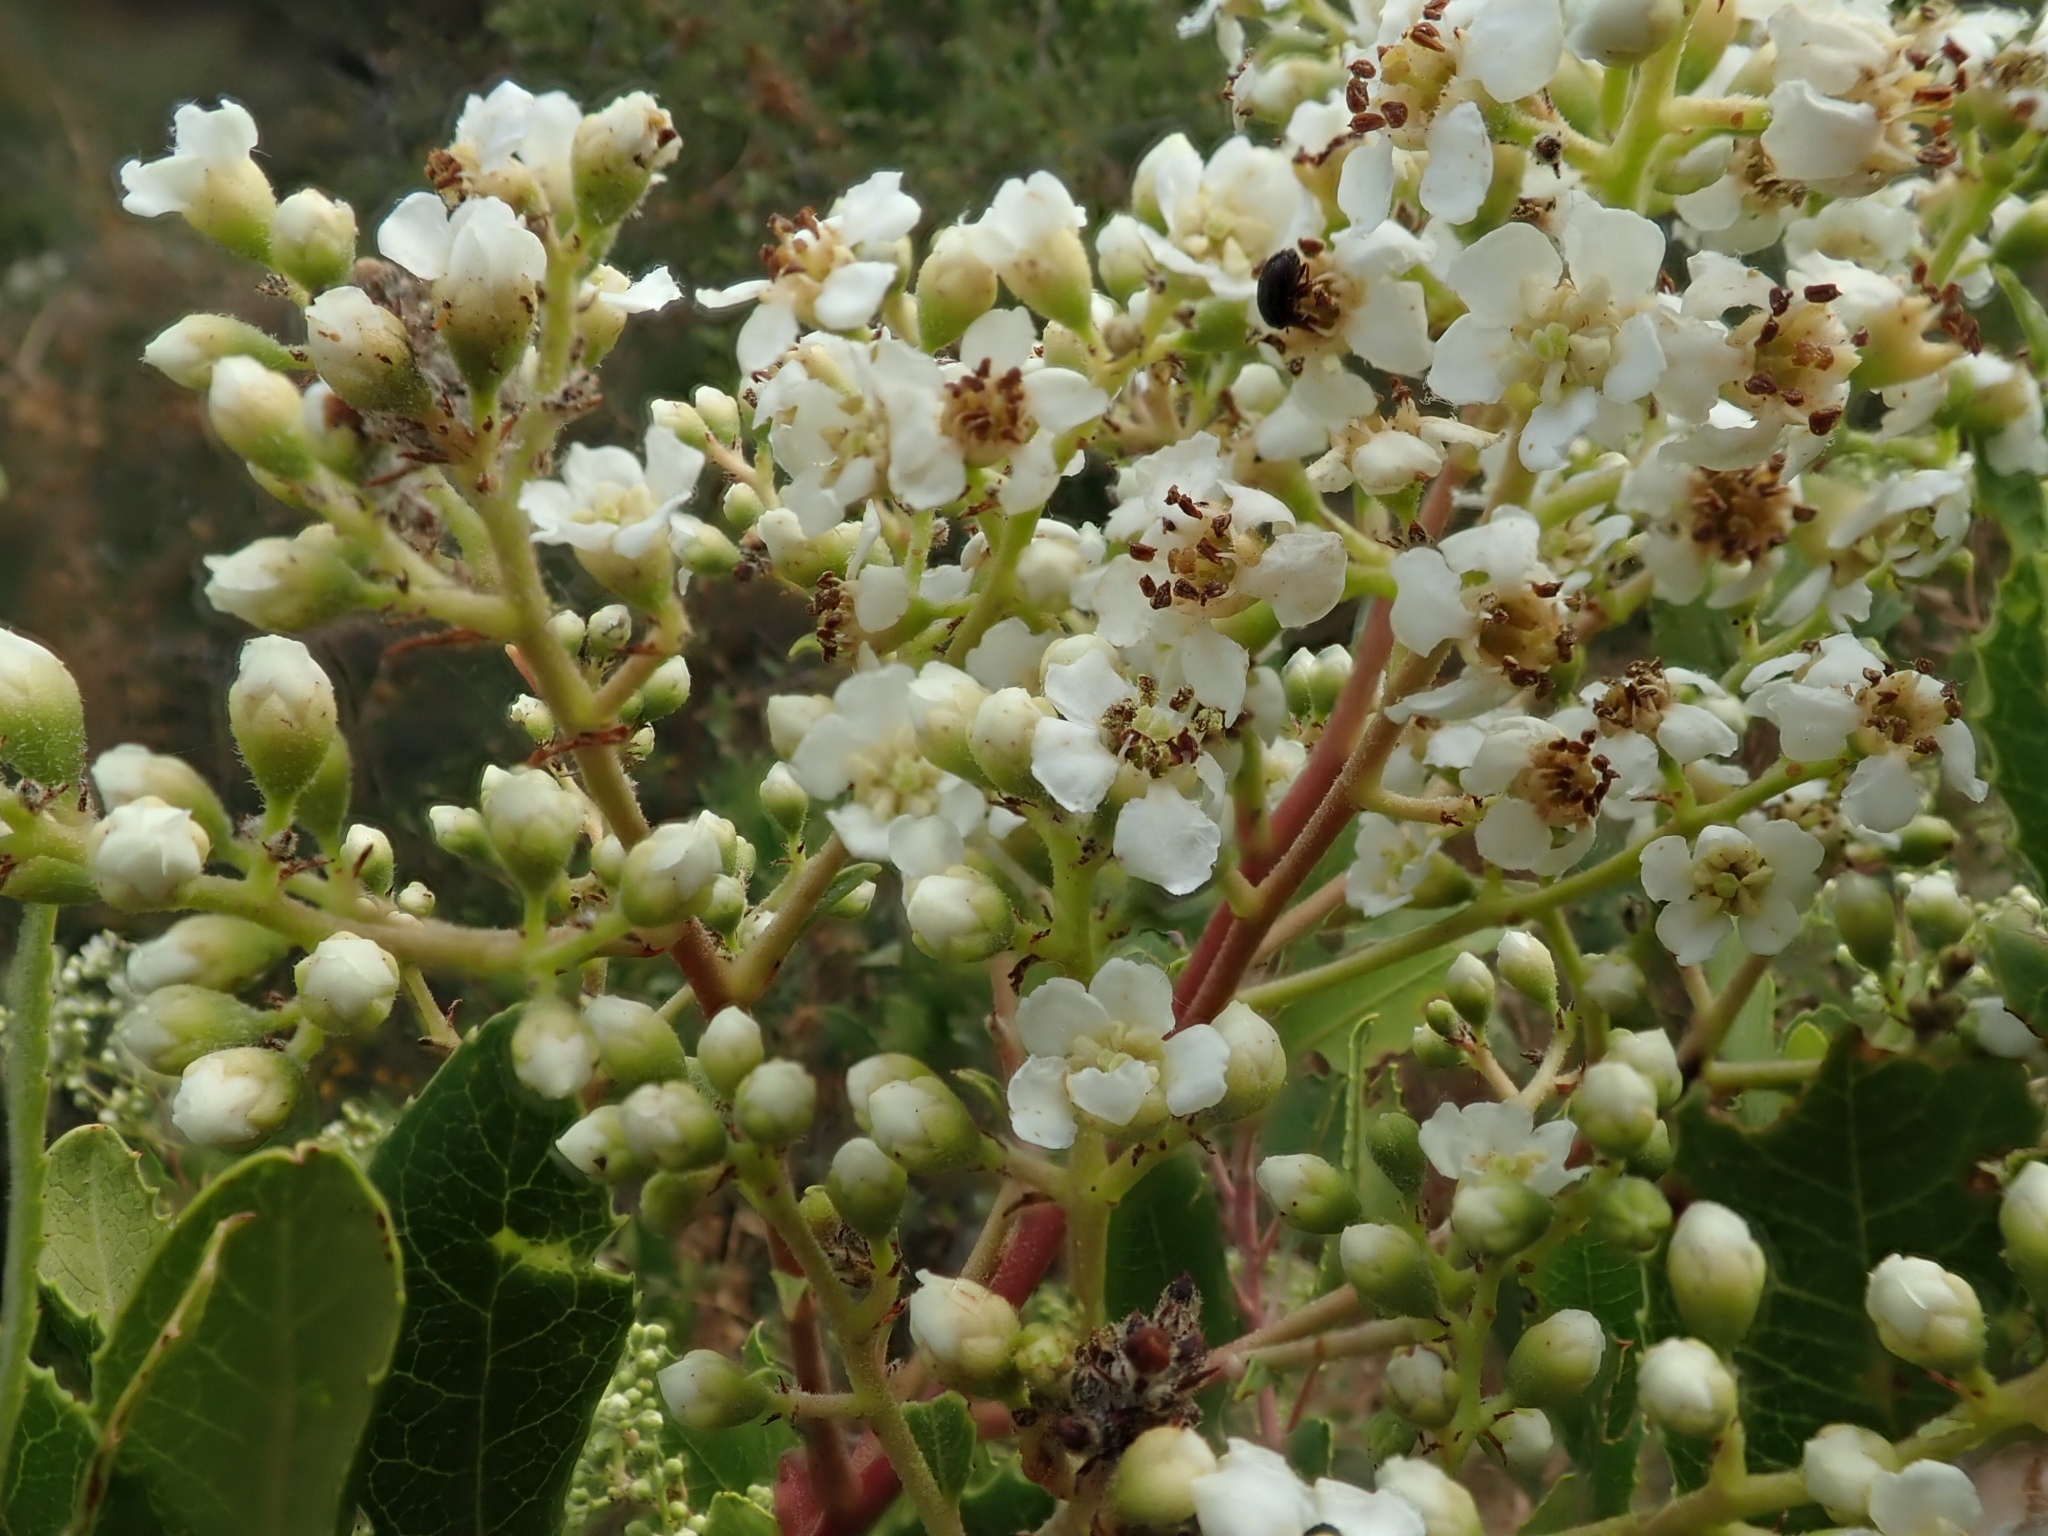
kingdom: Plantae
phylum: Tracheophyta
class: Magnoliopsida
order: Rosales
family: Rosaceae
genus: Heteromeles
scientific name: Heteromeles arbutifolia
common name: California-holly
